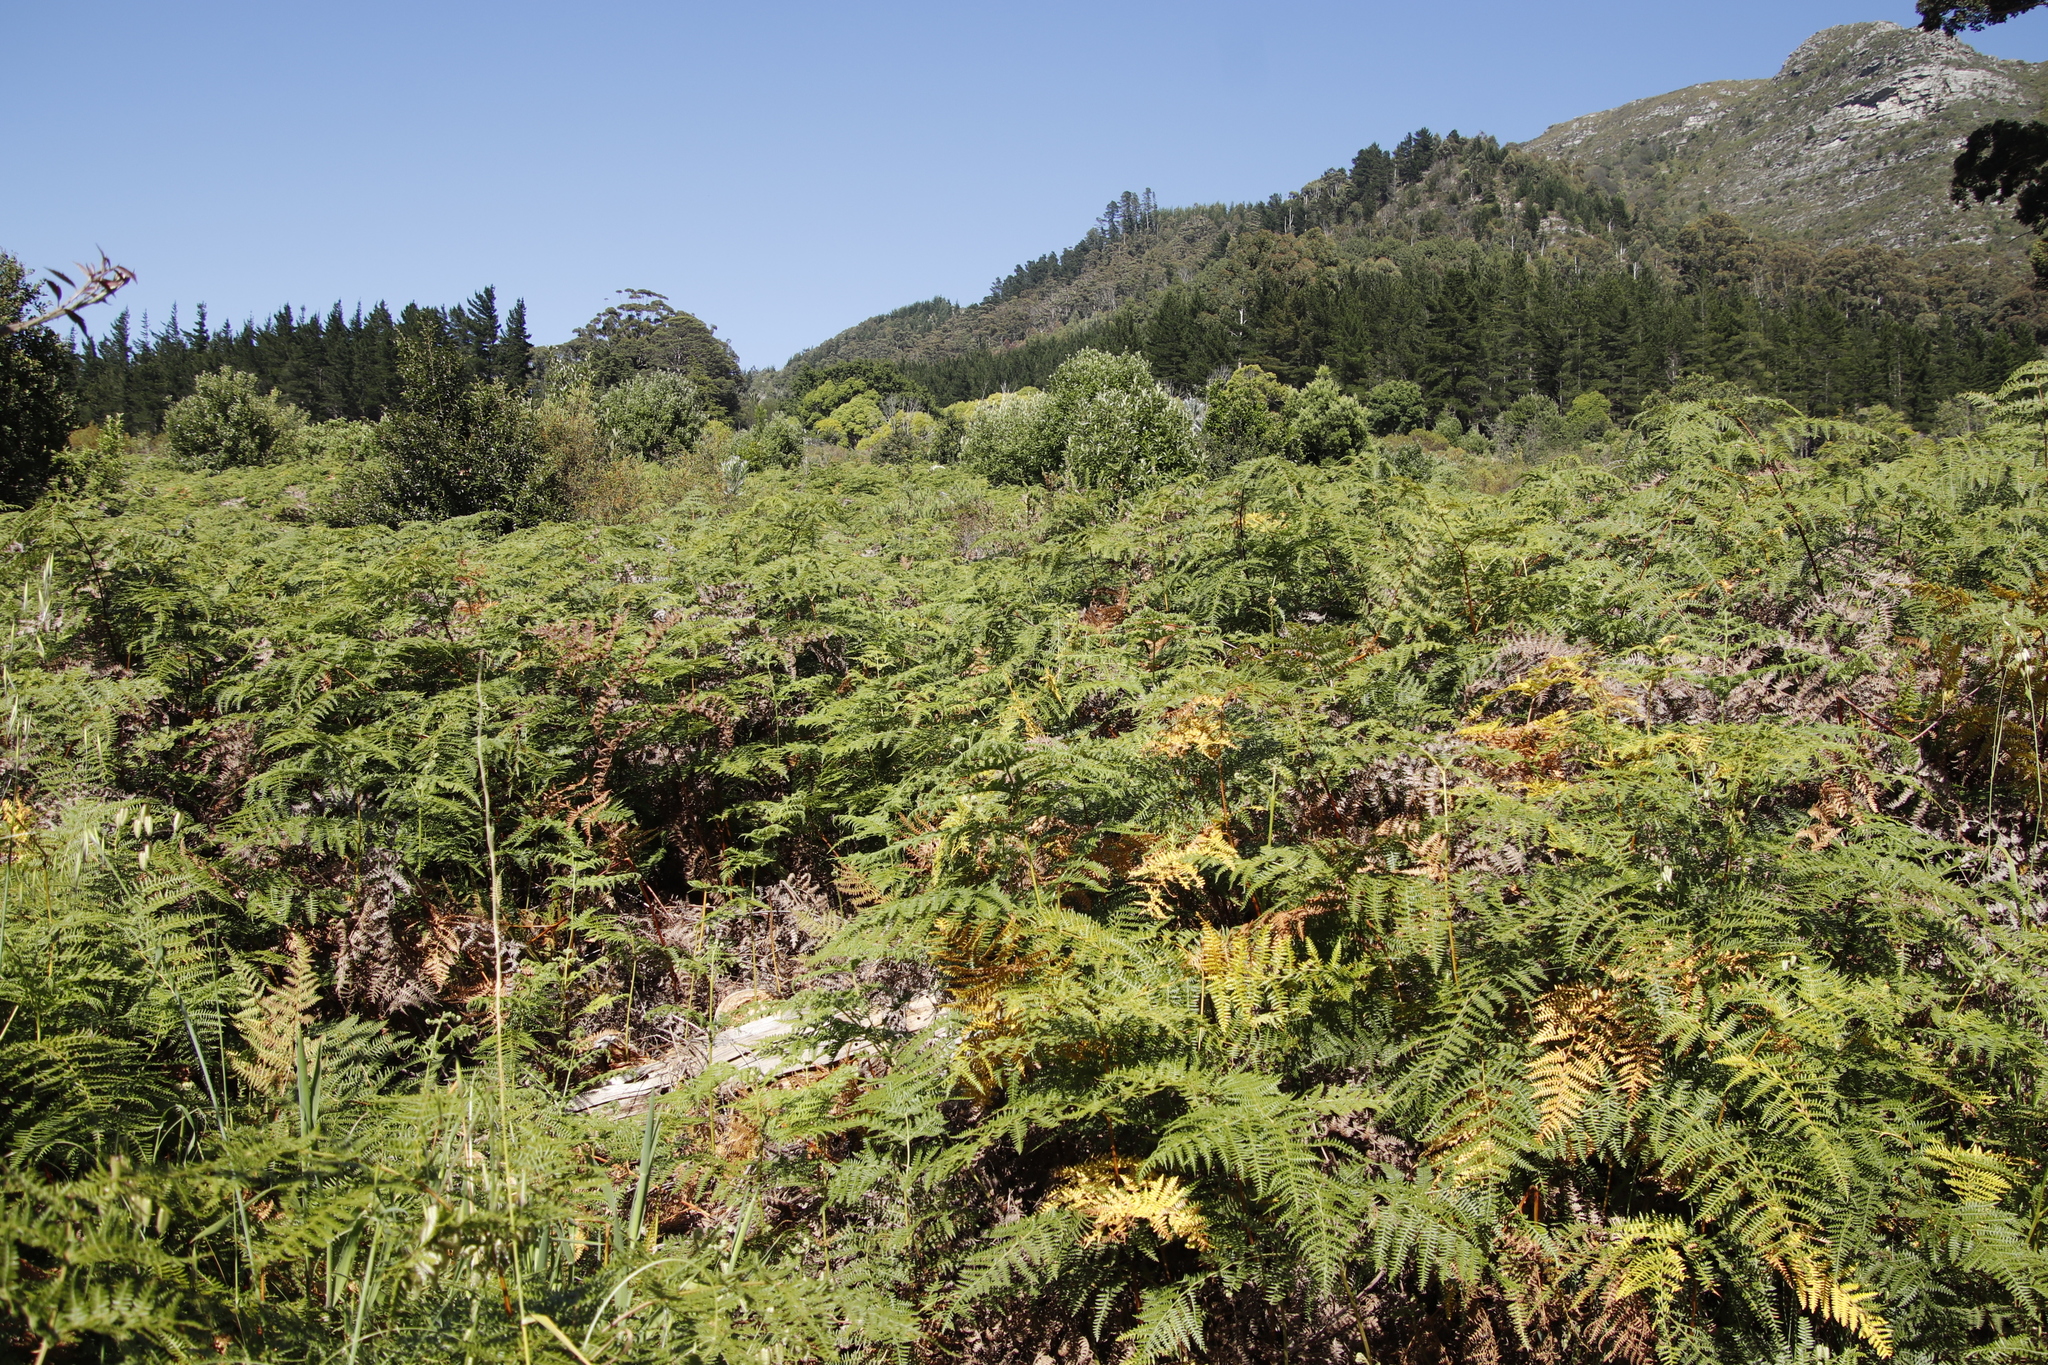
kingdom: Plantae
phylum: Tracheophyta
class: Polypodiopsida
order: Polypodiales
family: Dennstaedtiaceae
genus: Pteridium
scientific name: Pteridium aquilinum
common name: Bracken
